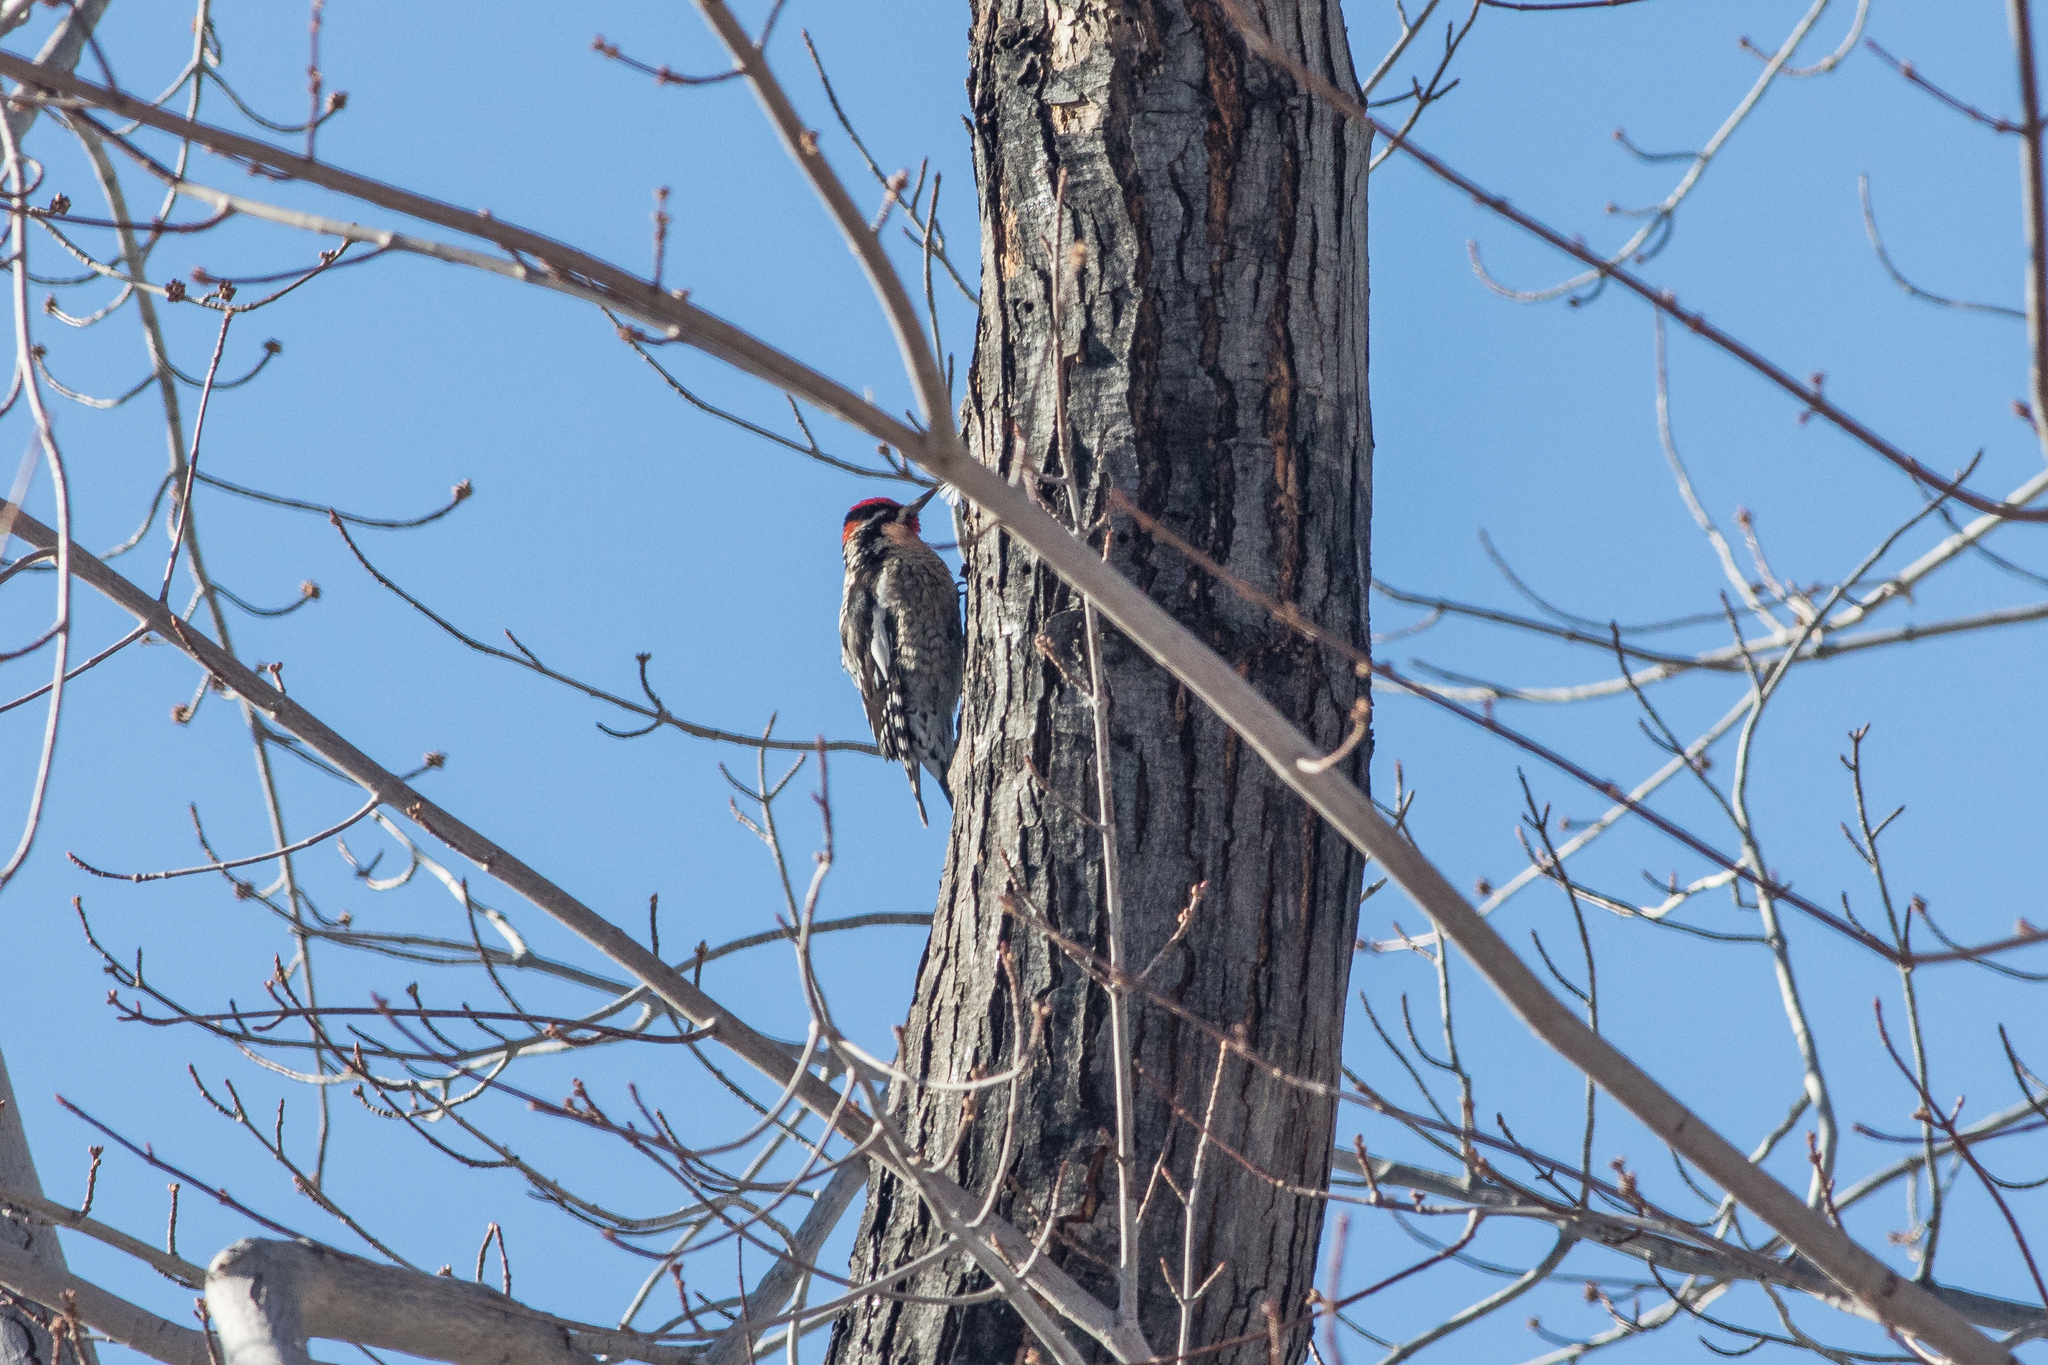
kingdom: Animalia
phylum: Chordata
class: Aves
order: Piciformes
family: Picidae
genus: Sphyrapicus
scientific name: Sphyrapicus nuchalis
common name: Red-naped sapsucker
